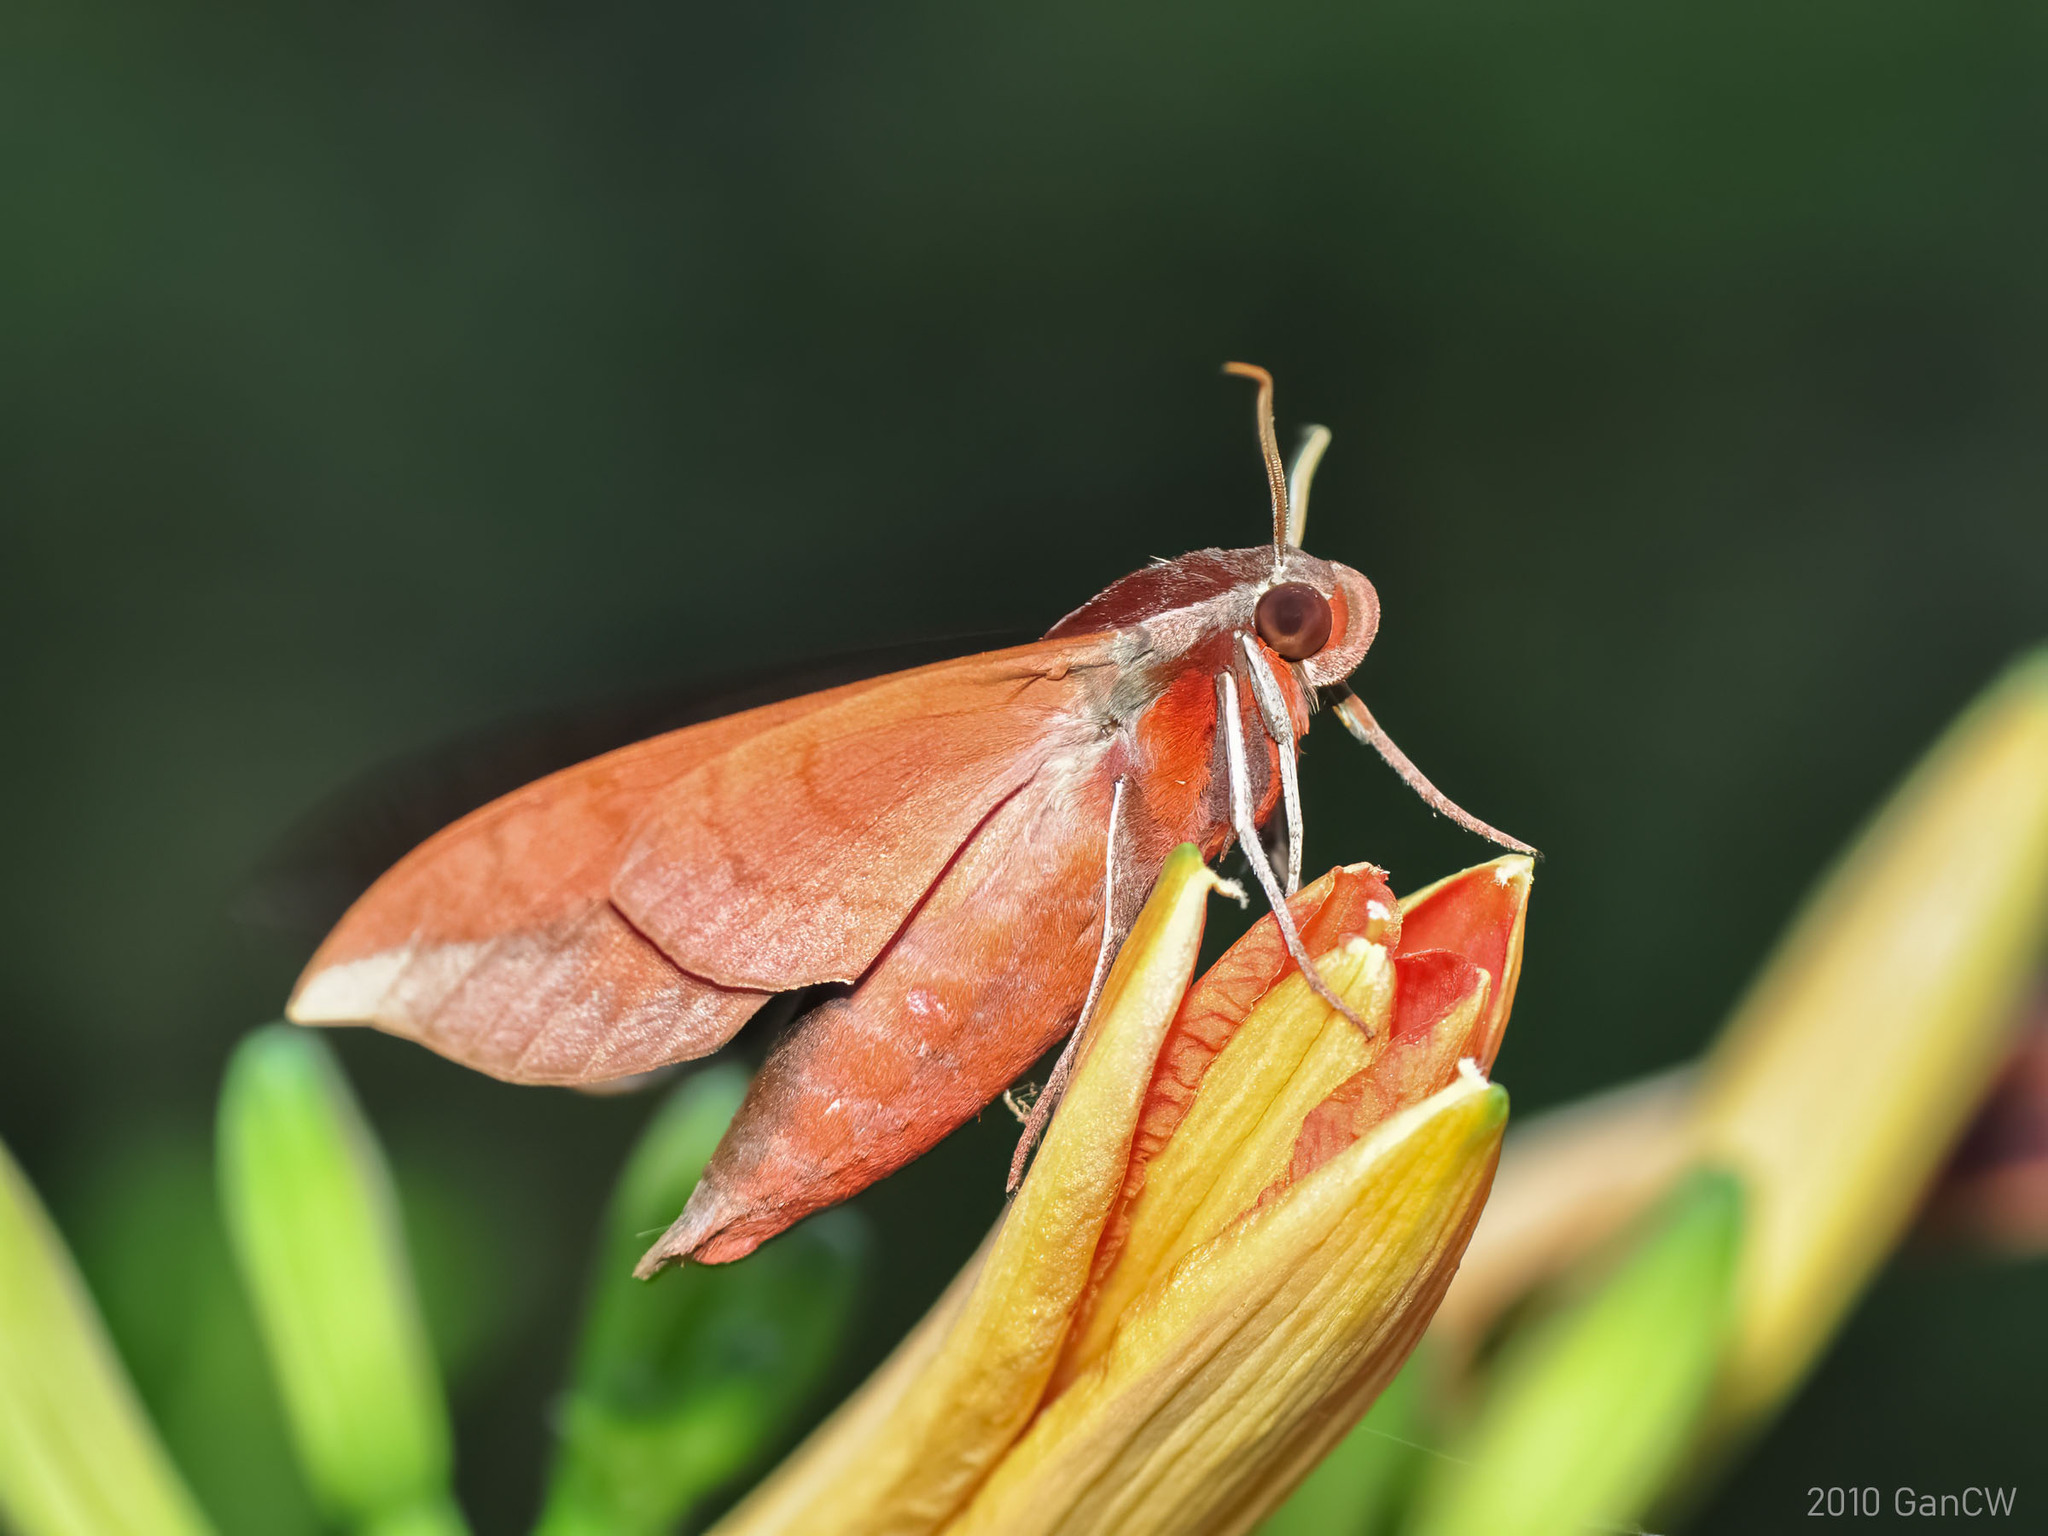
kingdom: Animalia
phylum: Arthropoda
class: Insecta
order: Lepidoptera
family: Sphingidae
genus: Ampelophaga
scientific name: Ampelophaga rubiginosa
